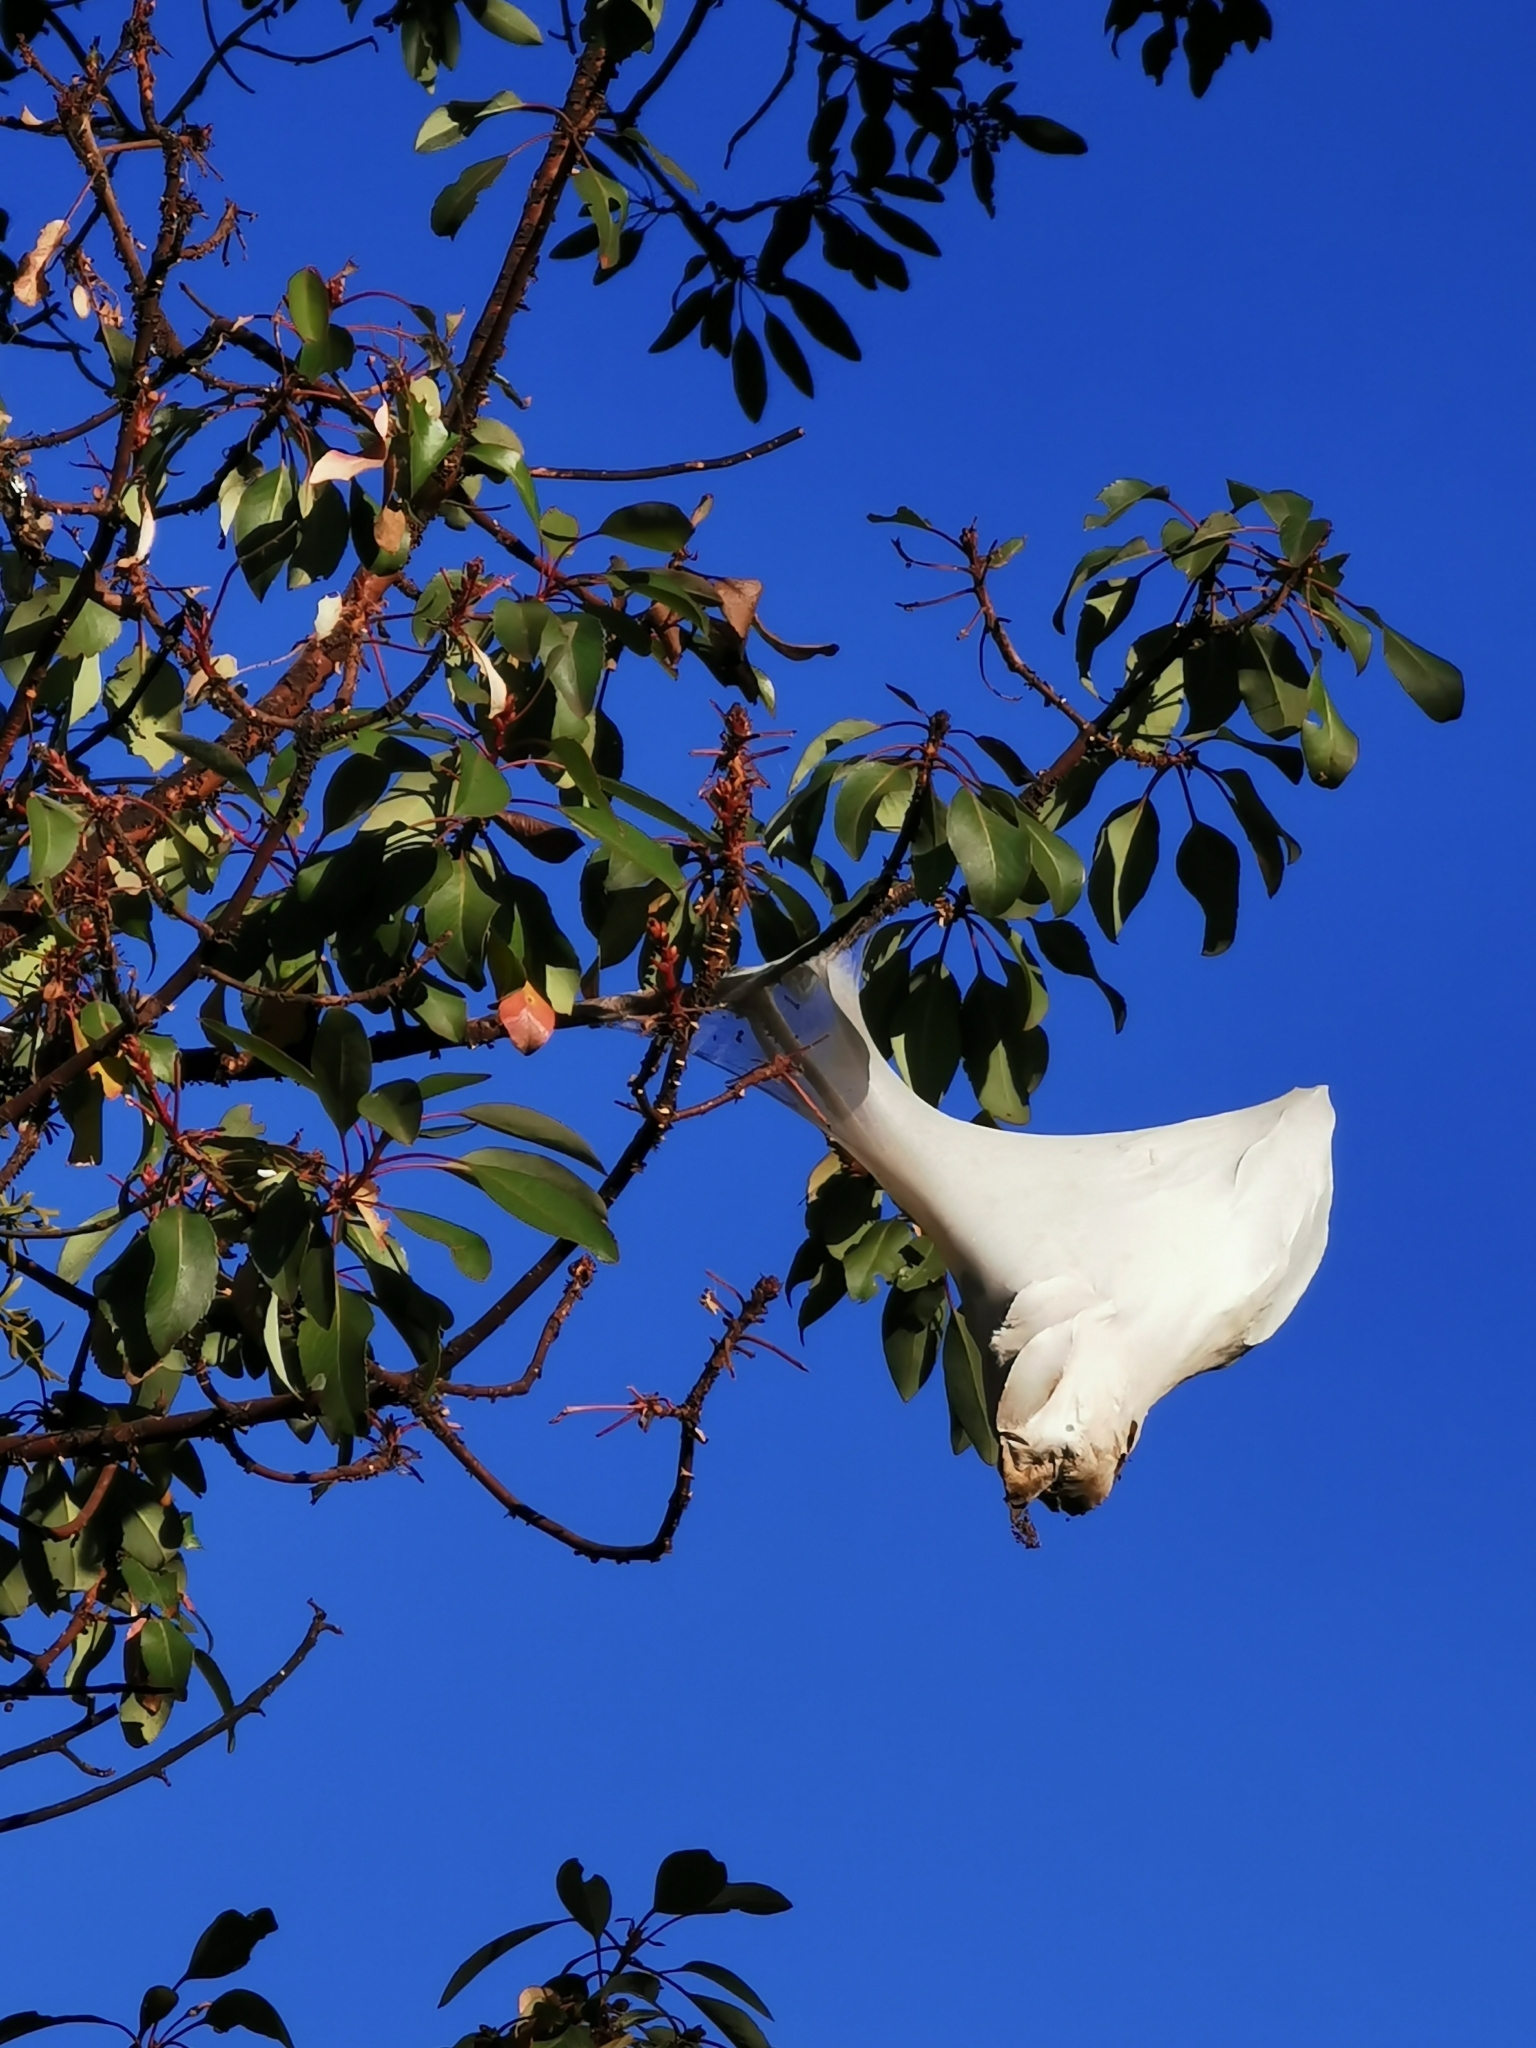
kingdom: Animalia
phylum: Arthropoda
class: Insecta
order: Lepidoptera
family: Pieridae
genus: Eucheira
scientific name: Eucheira socialis
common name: Madrone white
